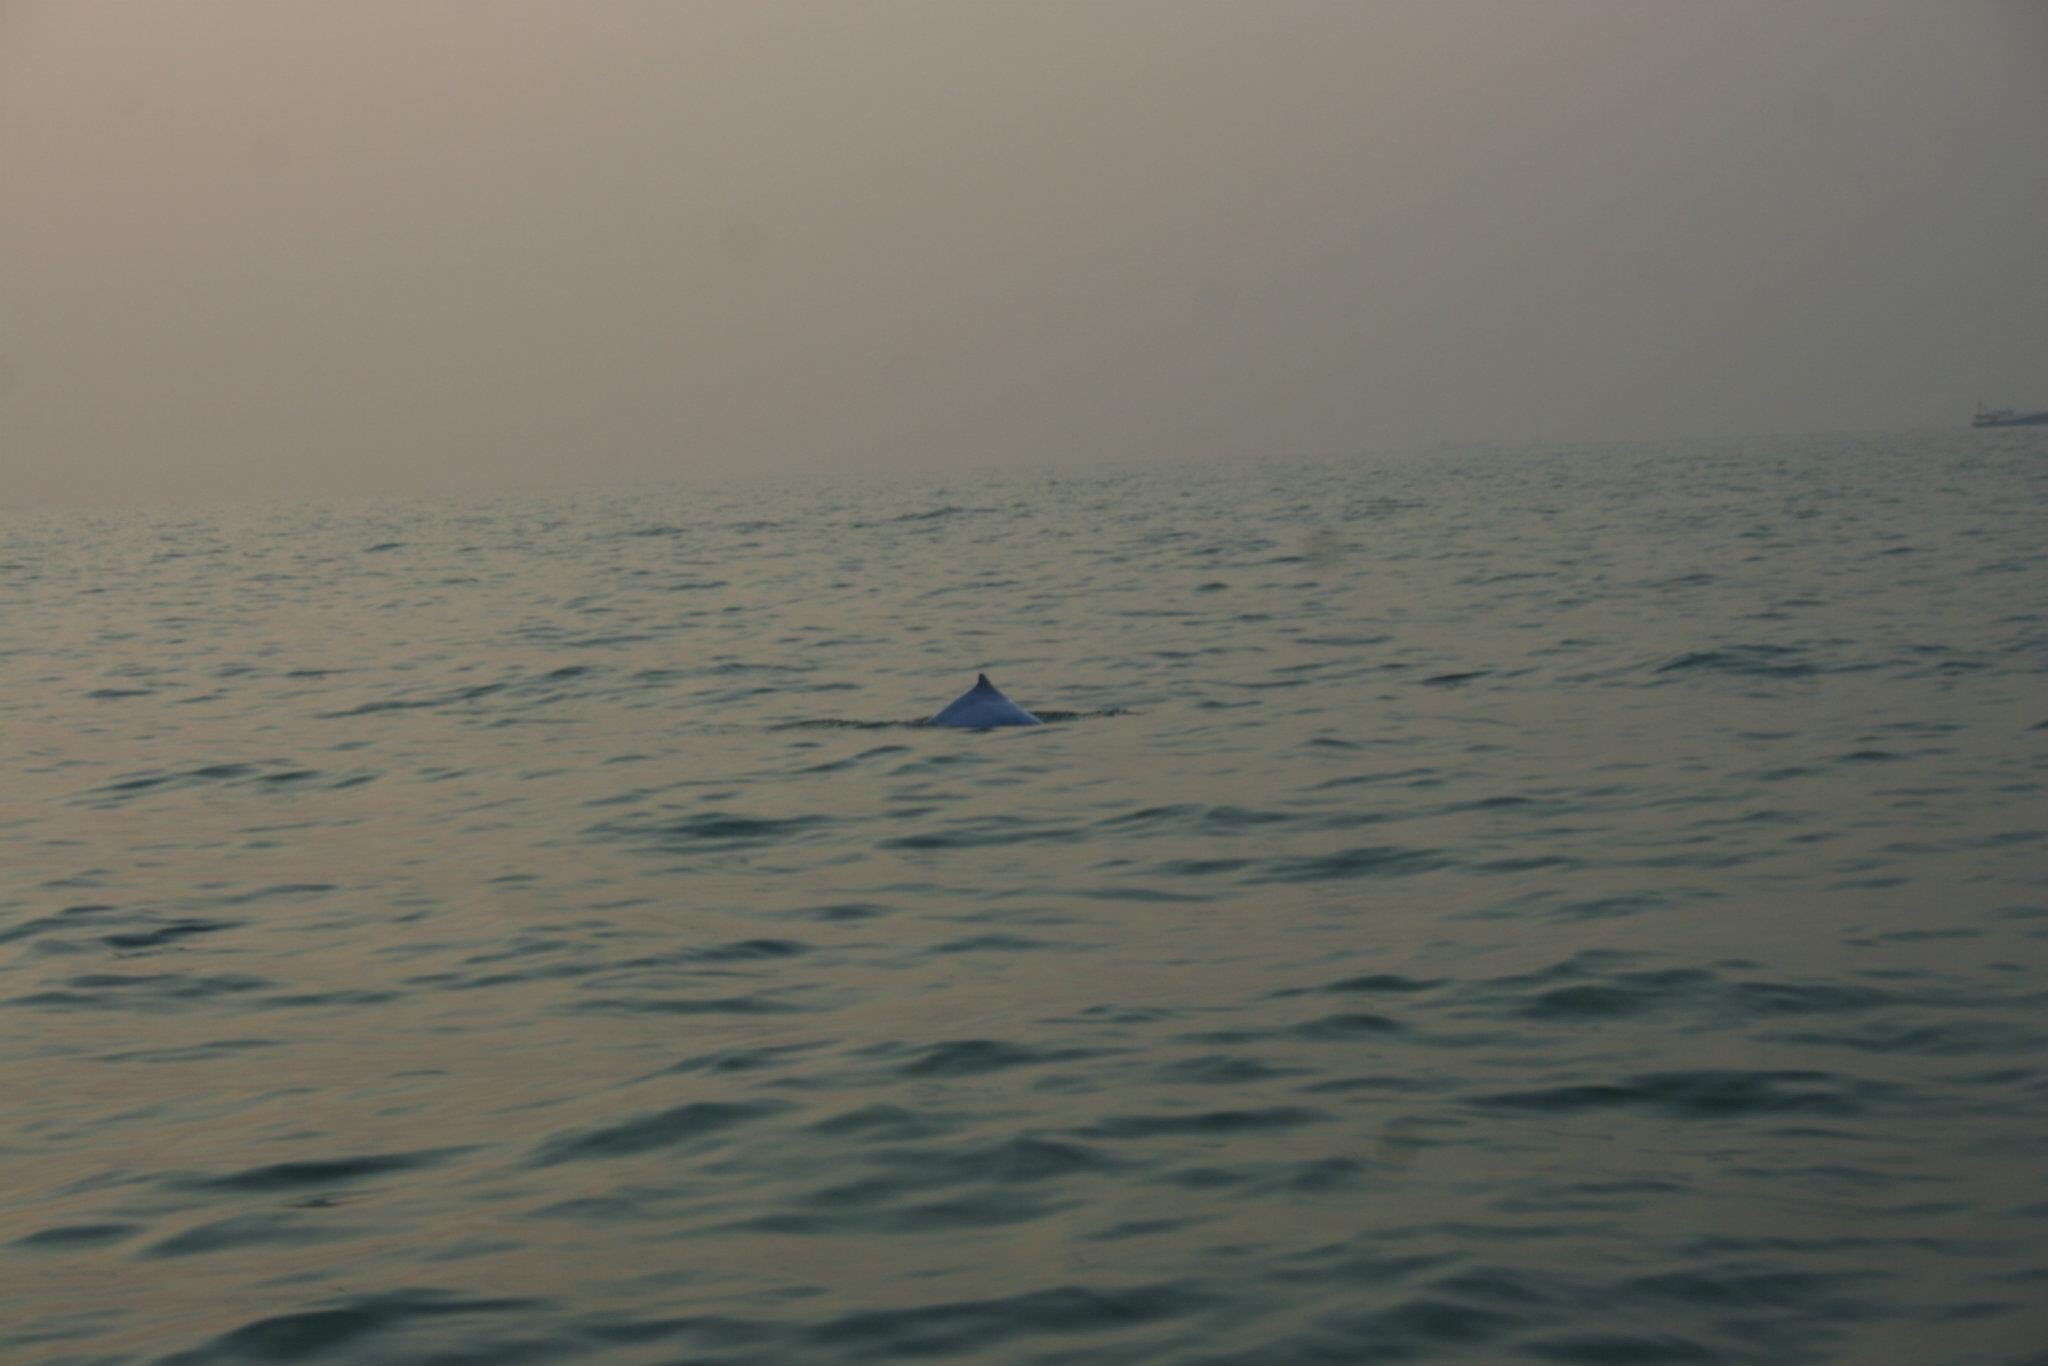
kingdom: Animalia
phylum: Chordata
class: Mammalia
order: Cetacea
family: Delphinidae
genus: Sousa
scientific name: Sousa chinensis
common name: Chinese white dolphin
